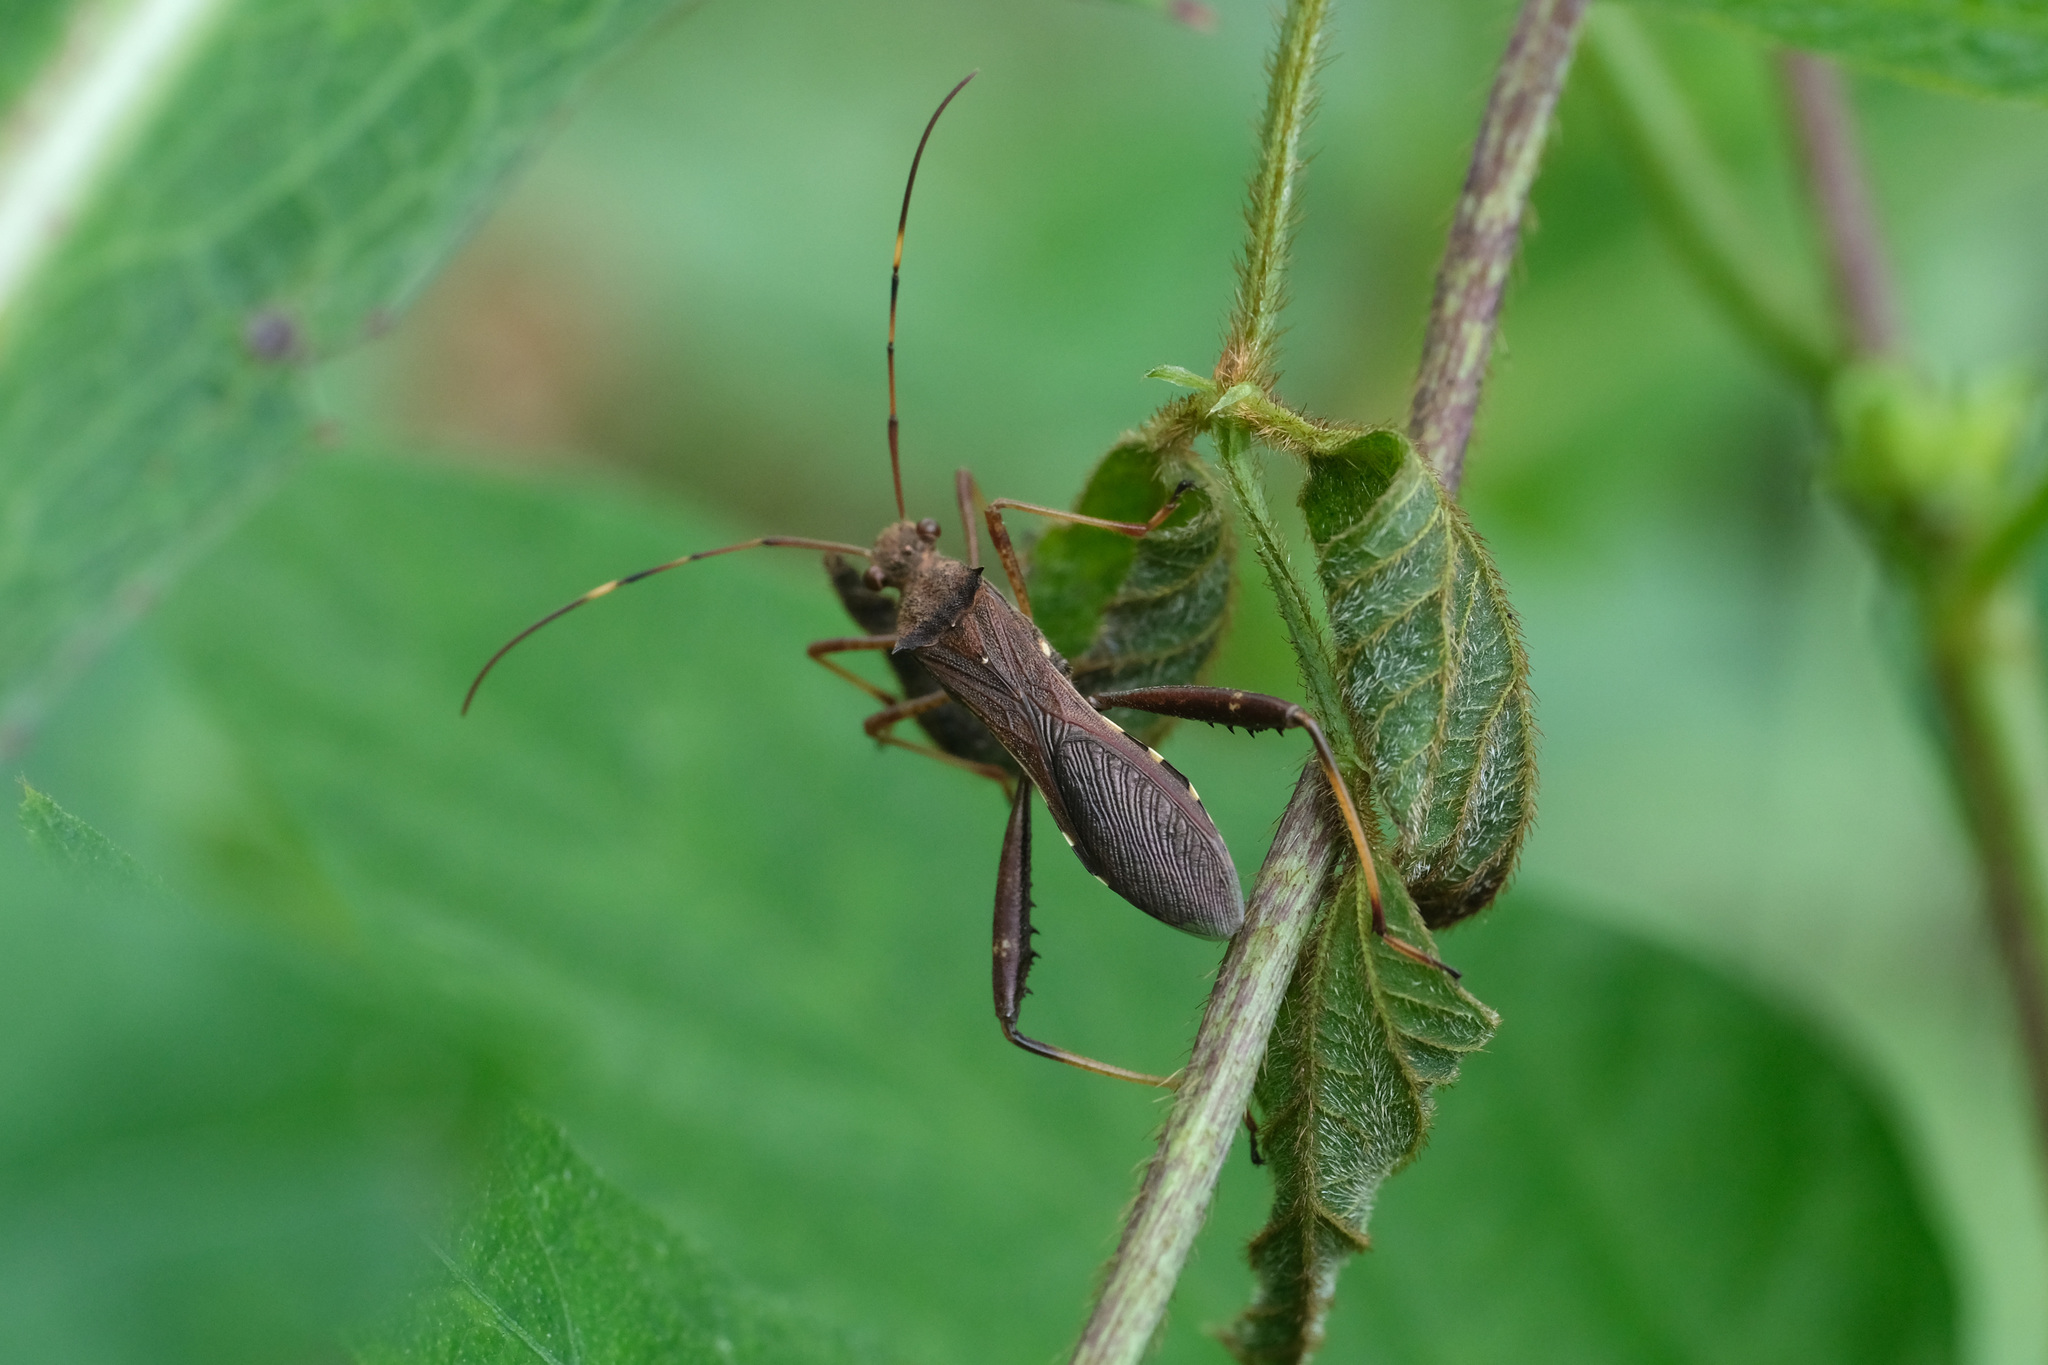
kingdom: Animalia
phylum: Arthropoda
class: Insecta
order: Hemiptera
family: Alydidae
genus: Riptortus
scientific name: Riptortus pedestris
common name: Bean bug
